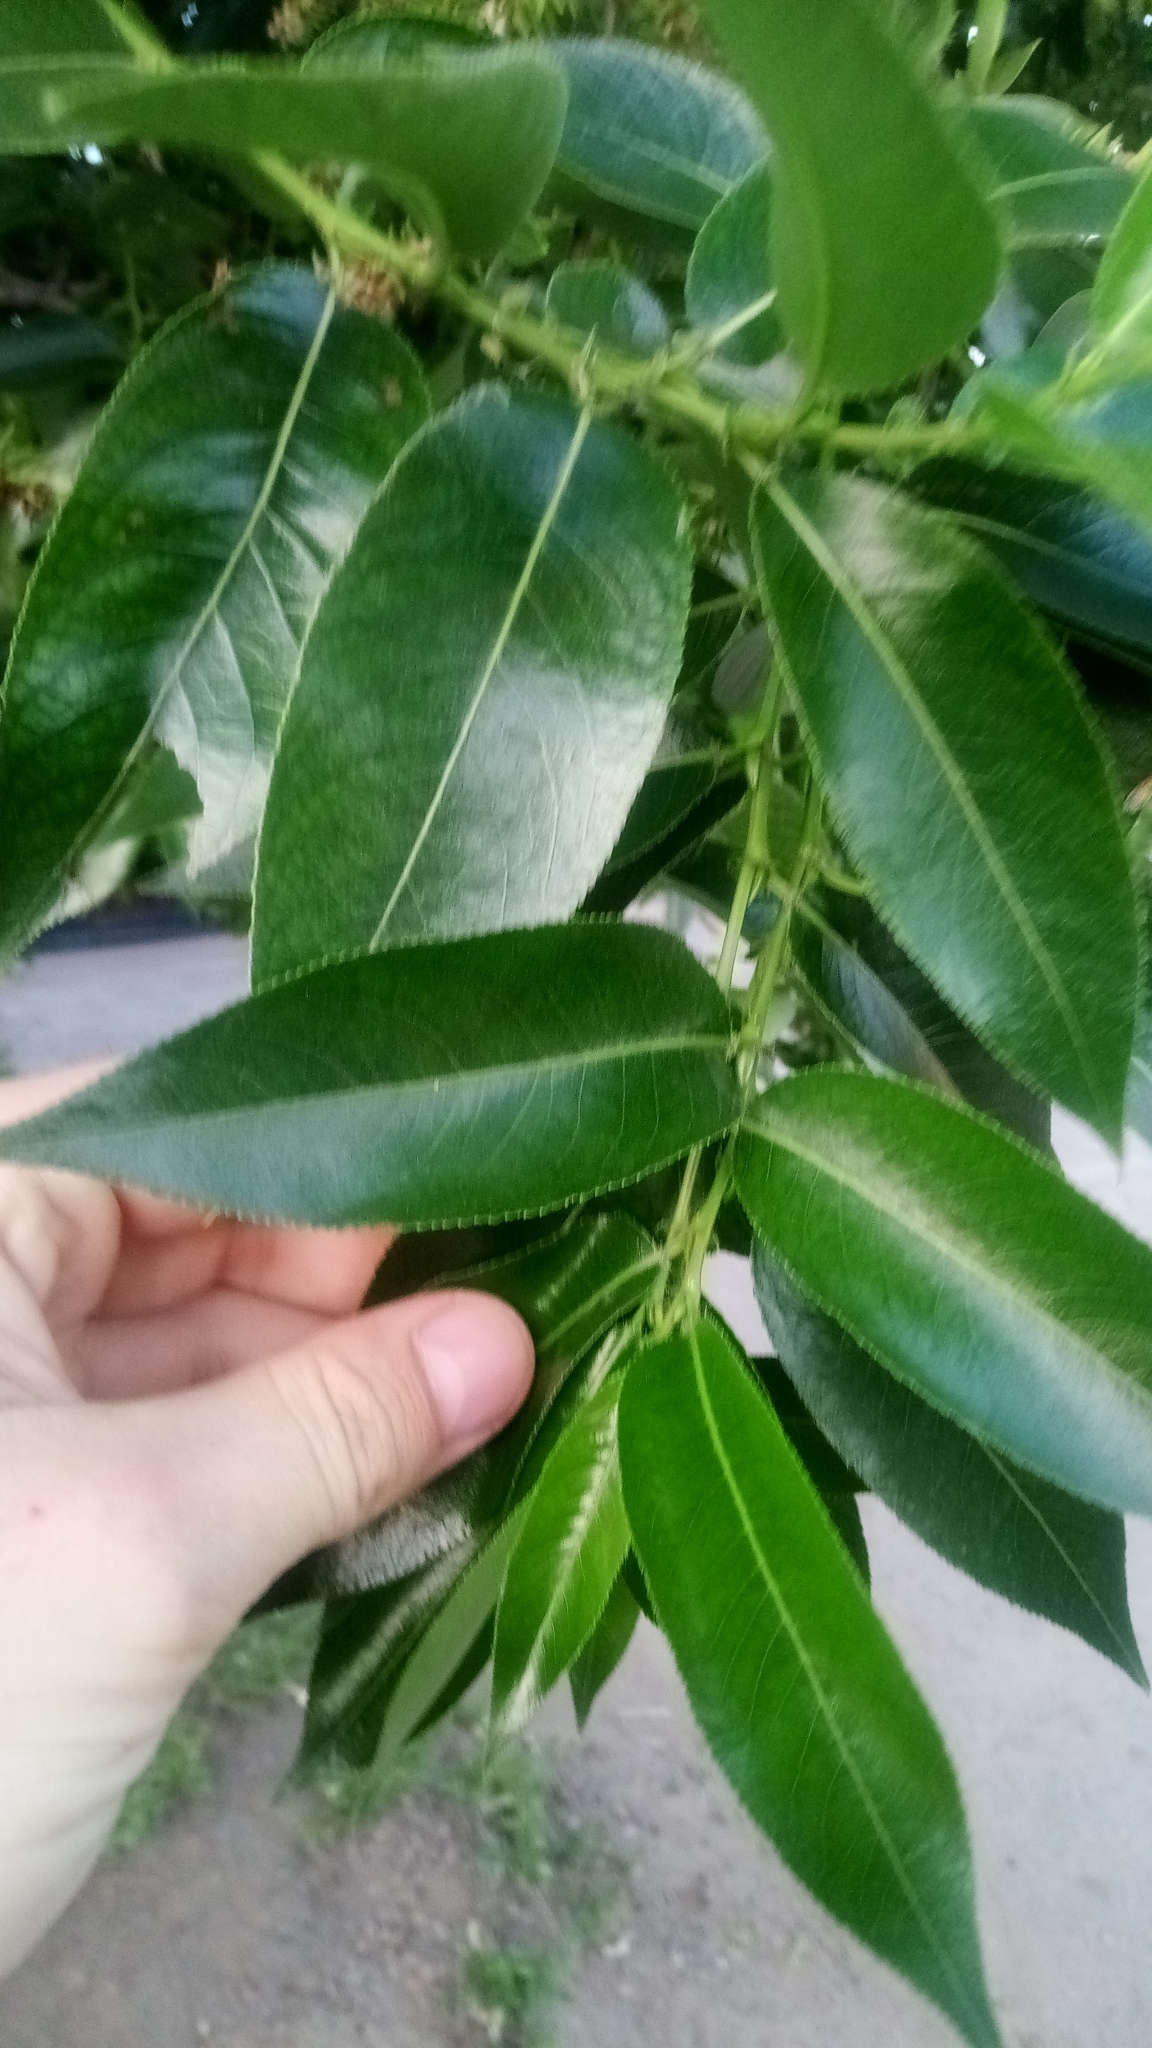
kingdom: Plantae
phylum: Tracheophyta
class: Magnoliopsida
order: Malpighiales
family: Salicaceae
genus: Salix
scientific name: Salix pentandra
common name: Bay willow
